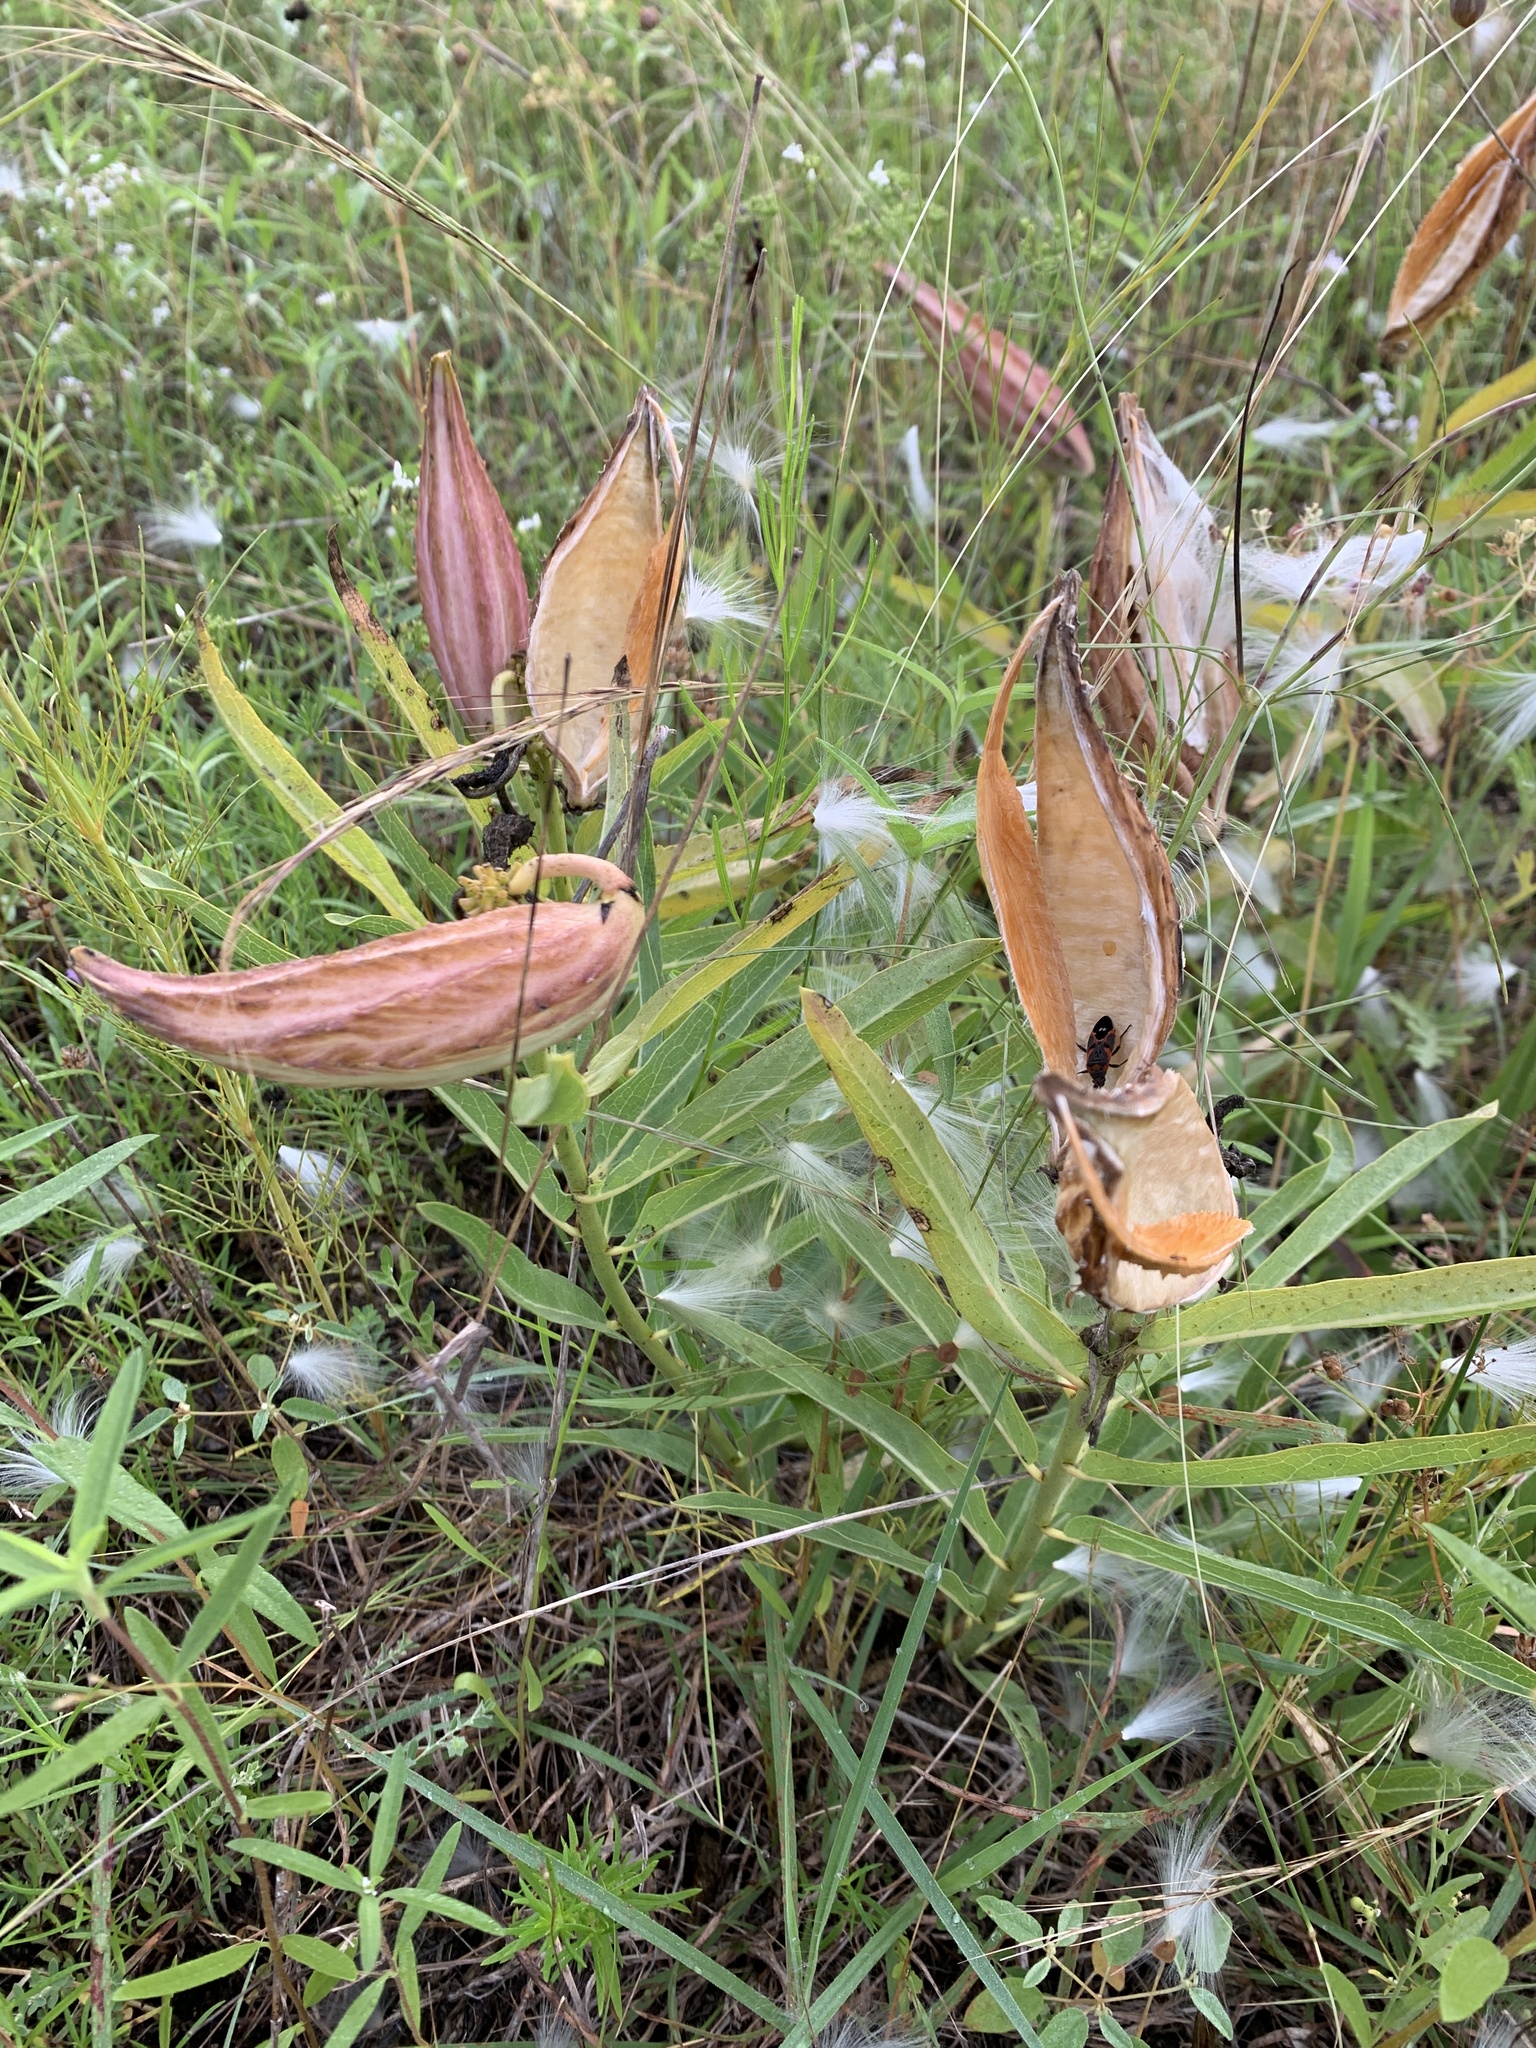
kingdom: Plantae
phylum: Tracheophyta
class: Magnoliopsida
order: Gentianales
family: Apocynaceae
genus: Asclepias
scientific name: Asclepias asperula
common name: Antelope horns
